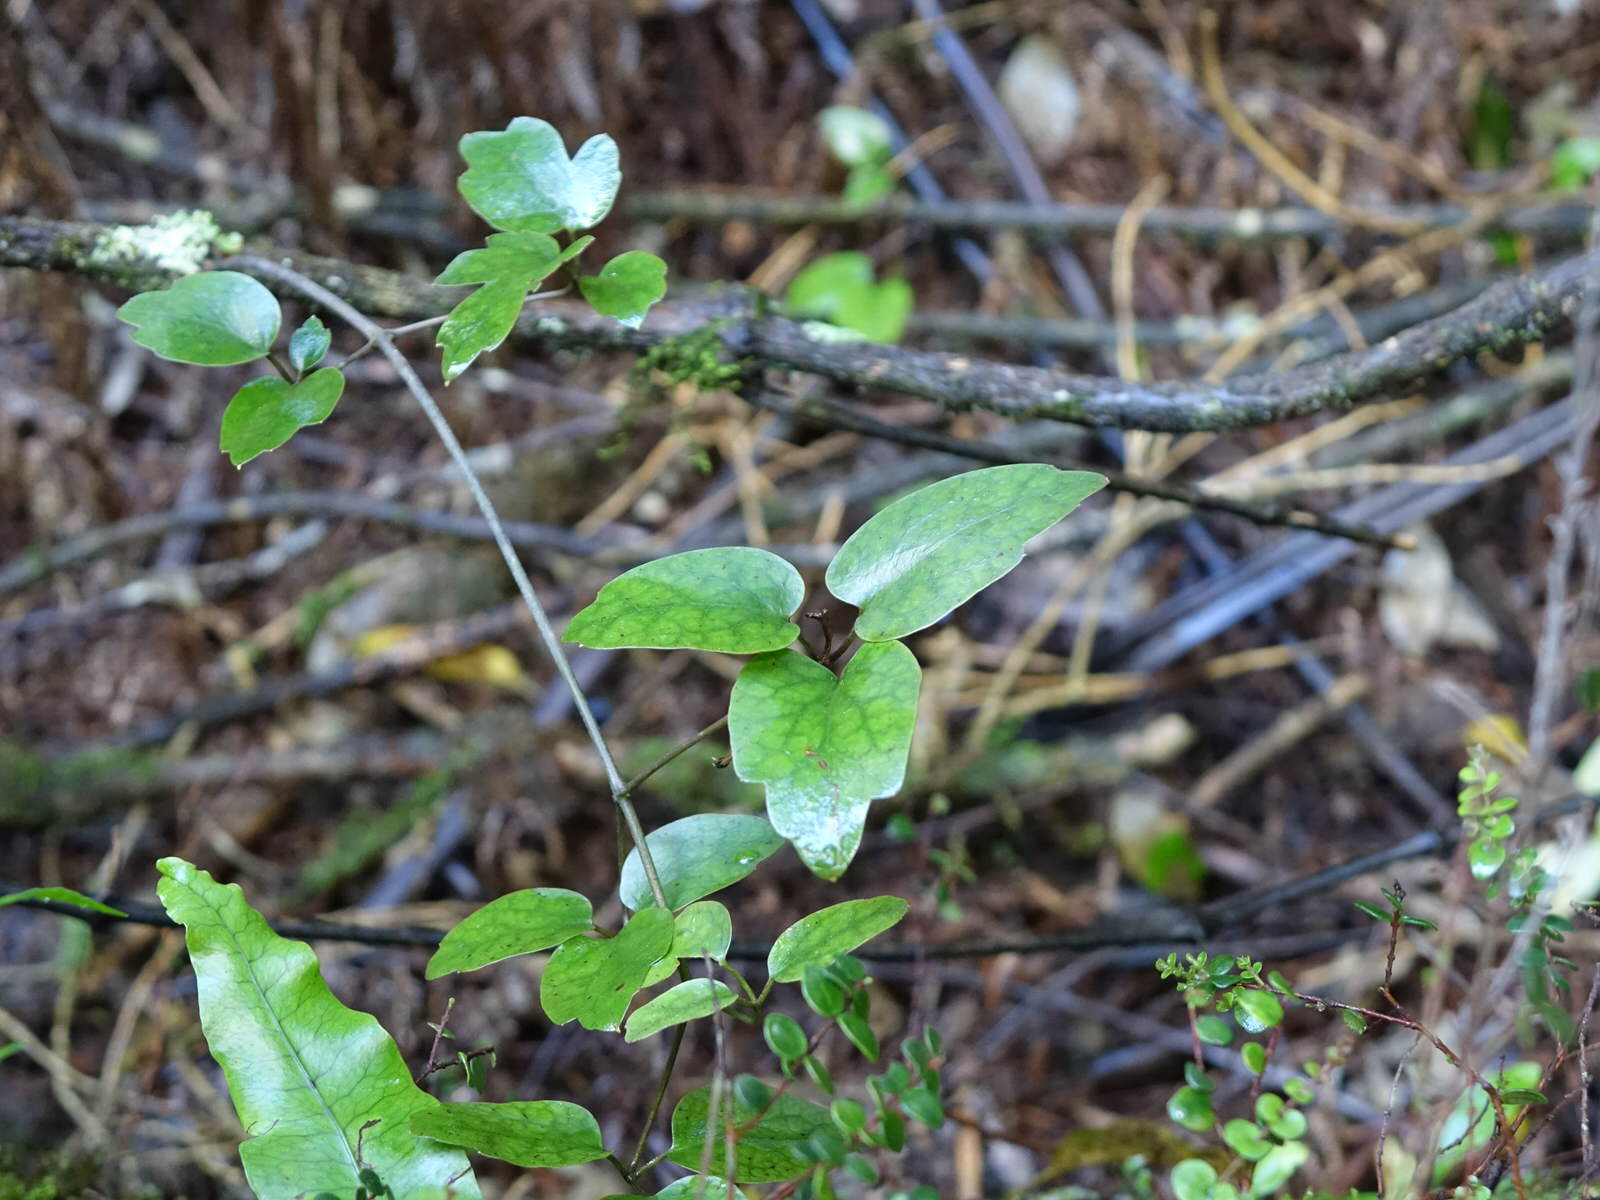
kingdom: Plantae
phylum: Tracheophyta
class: Magnoliopsida
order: Ranunculales
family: Ranunculaceae
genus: Clematis
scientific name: Clematis paniculata
